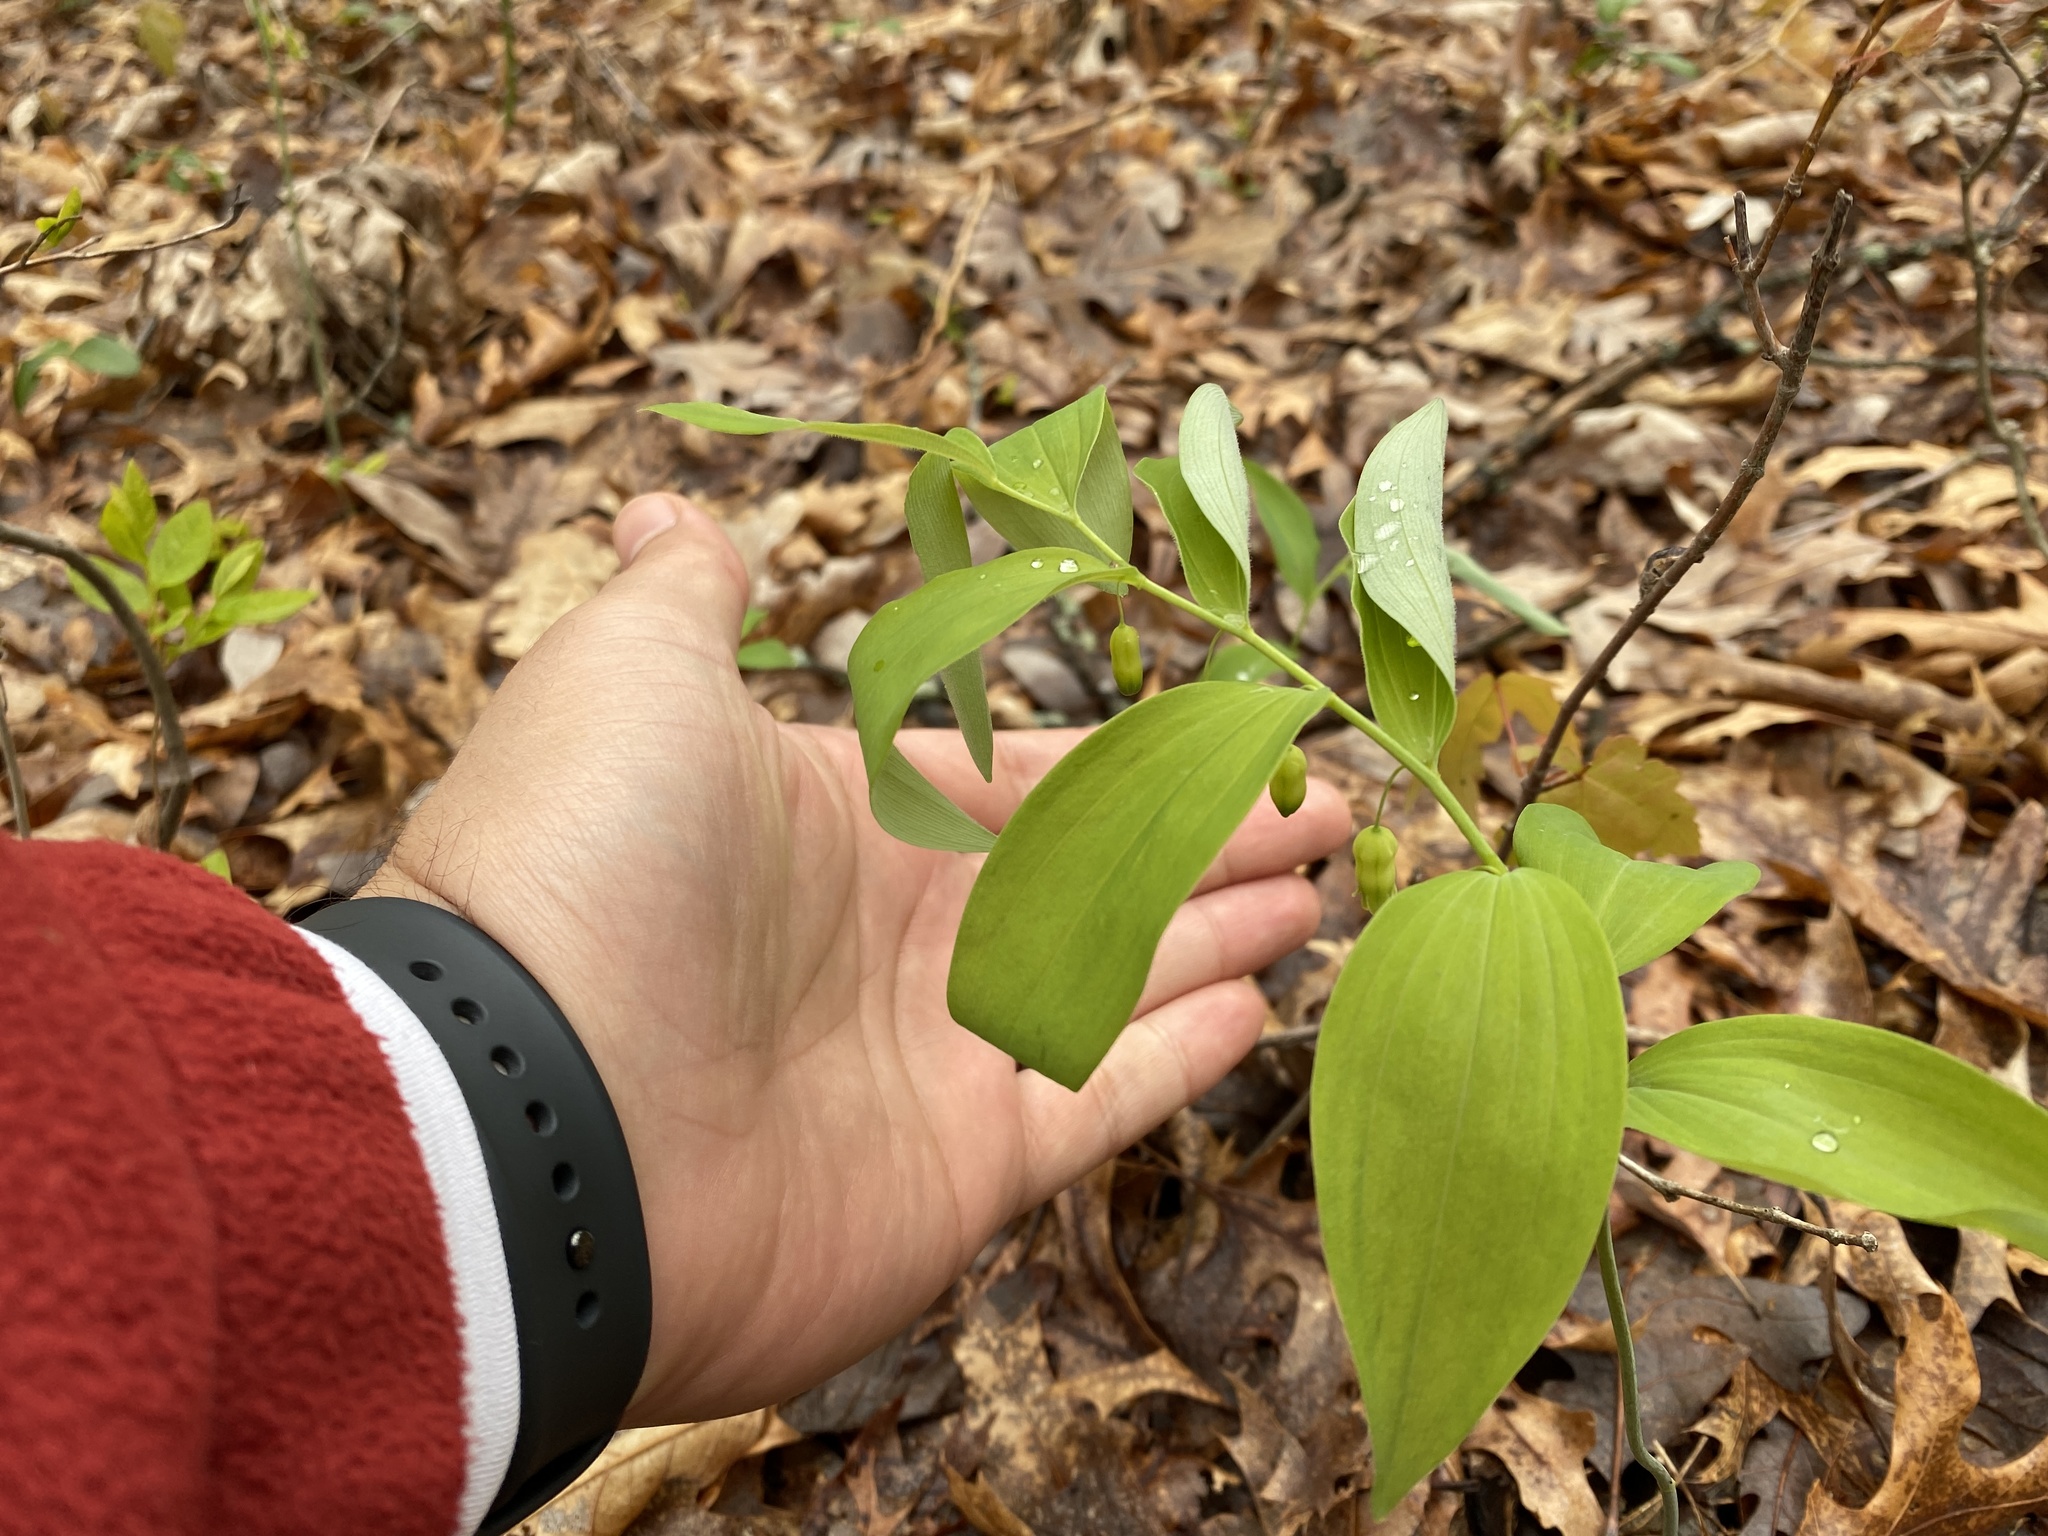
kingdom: Plantae
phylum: Tracheophyta
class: Liliopsida
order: Asparagales
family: Asparagaceae
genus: Polygonatum
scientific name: Polygonatum pubescens
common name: Downy solomon's seal
